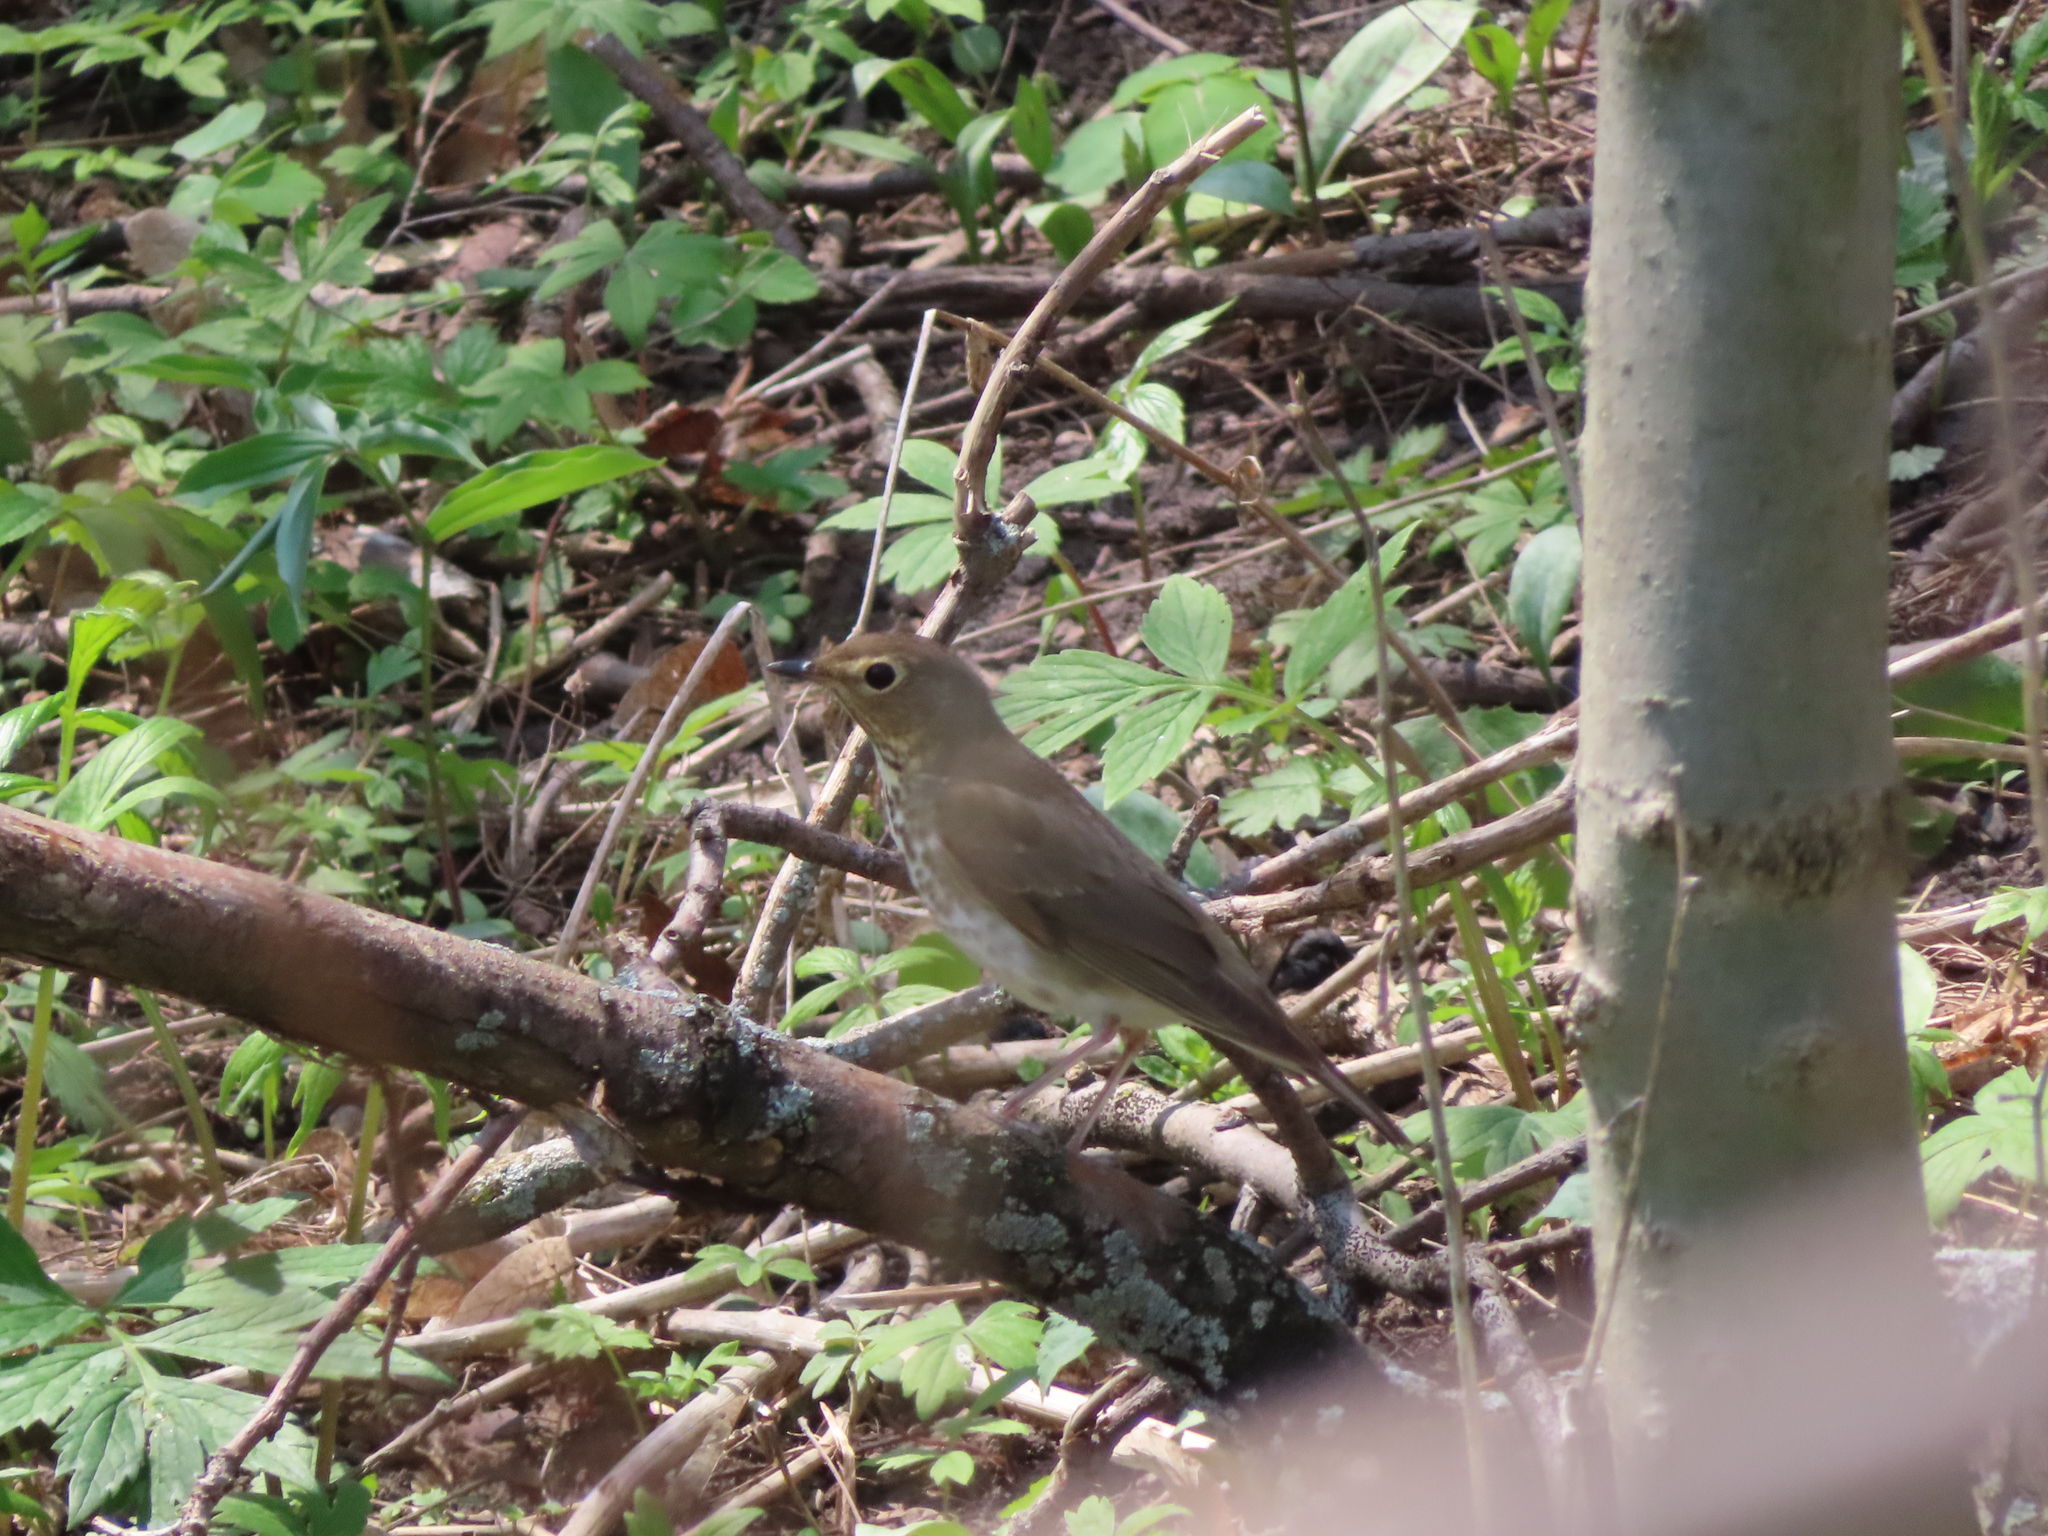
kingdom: Animalia
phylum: Chordata
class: Aves
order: Passeriformes
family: Turdidae
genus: Catharus
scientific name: Catharus ustulatus
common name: Swainson's thrush
